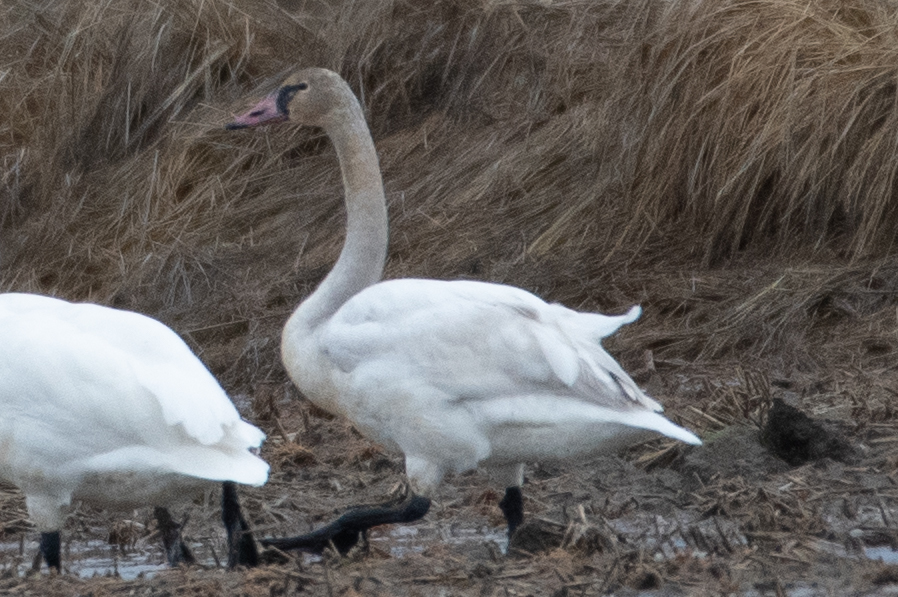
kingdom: Animalia
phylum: Chordata
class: Aves
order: Anseriformes
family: Anatidae
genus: Cygnus
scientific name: Cygnus columbianus
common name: Tundra swan
